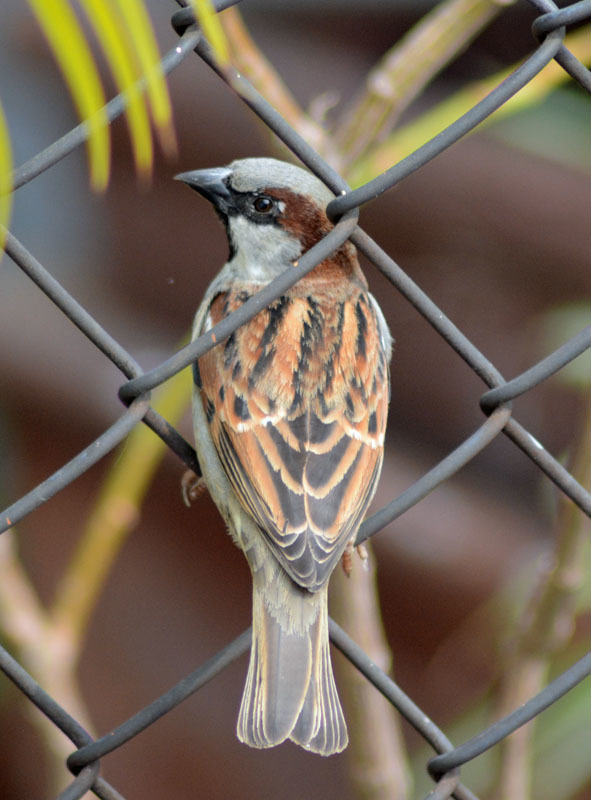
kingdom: Animalia
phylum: Chordata
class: Aves
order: Passeriformes
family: Passeridae
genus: Passer
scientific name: Passer domesticus
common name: House sparrow
